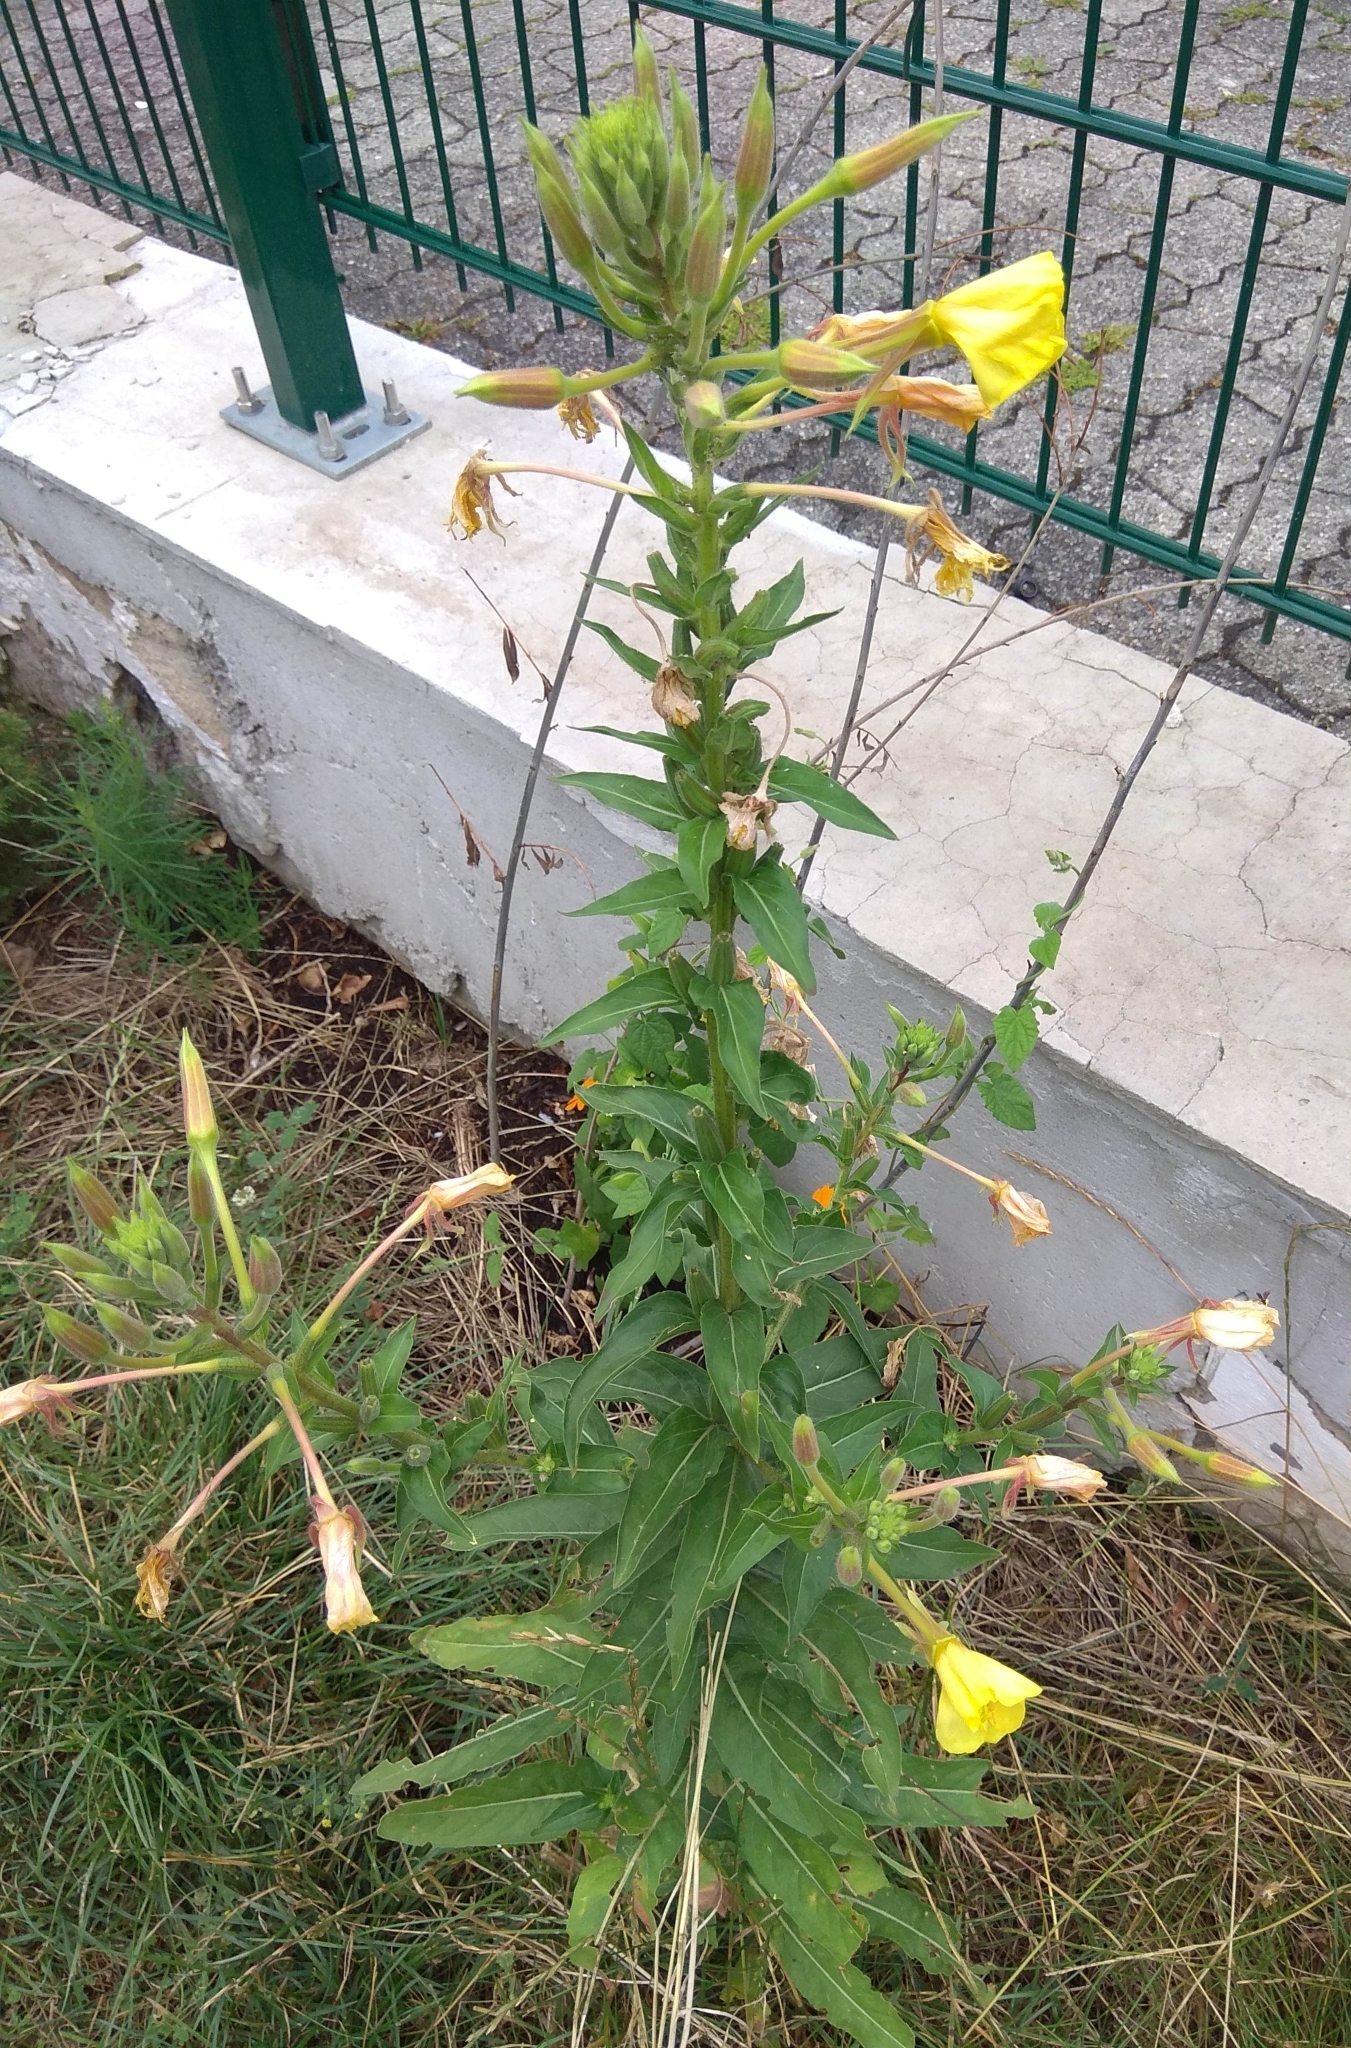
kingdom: Plantae
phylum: Tracheophyta
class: Magnoliopsida
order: Myrtales
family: Onagraceae
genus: Oenothera
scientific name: Oenothera biennis
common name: Common evening-primrose
